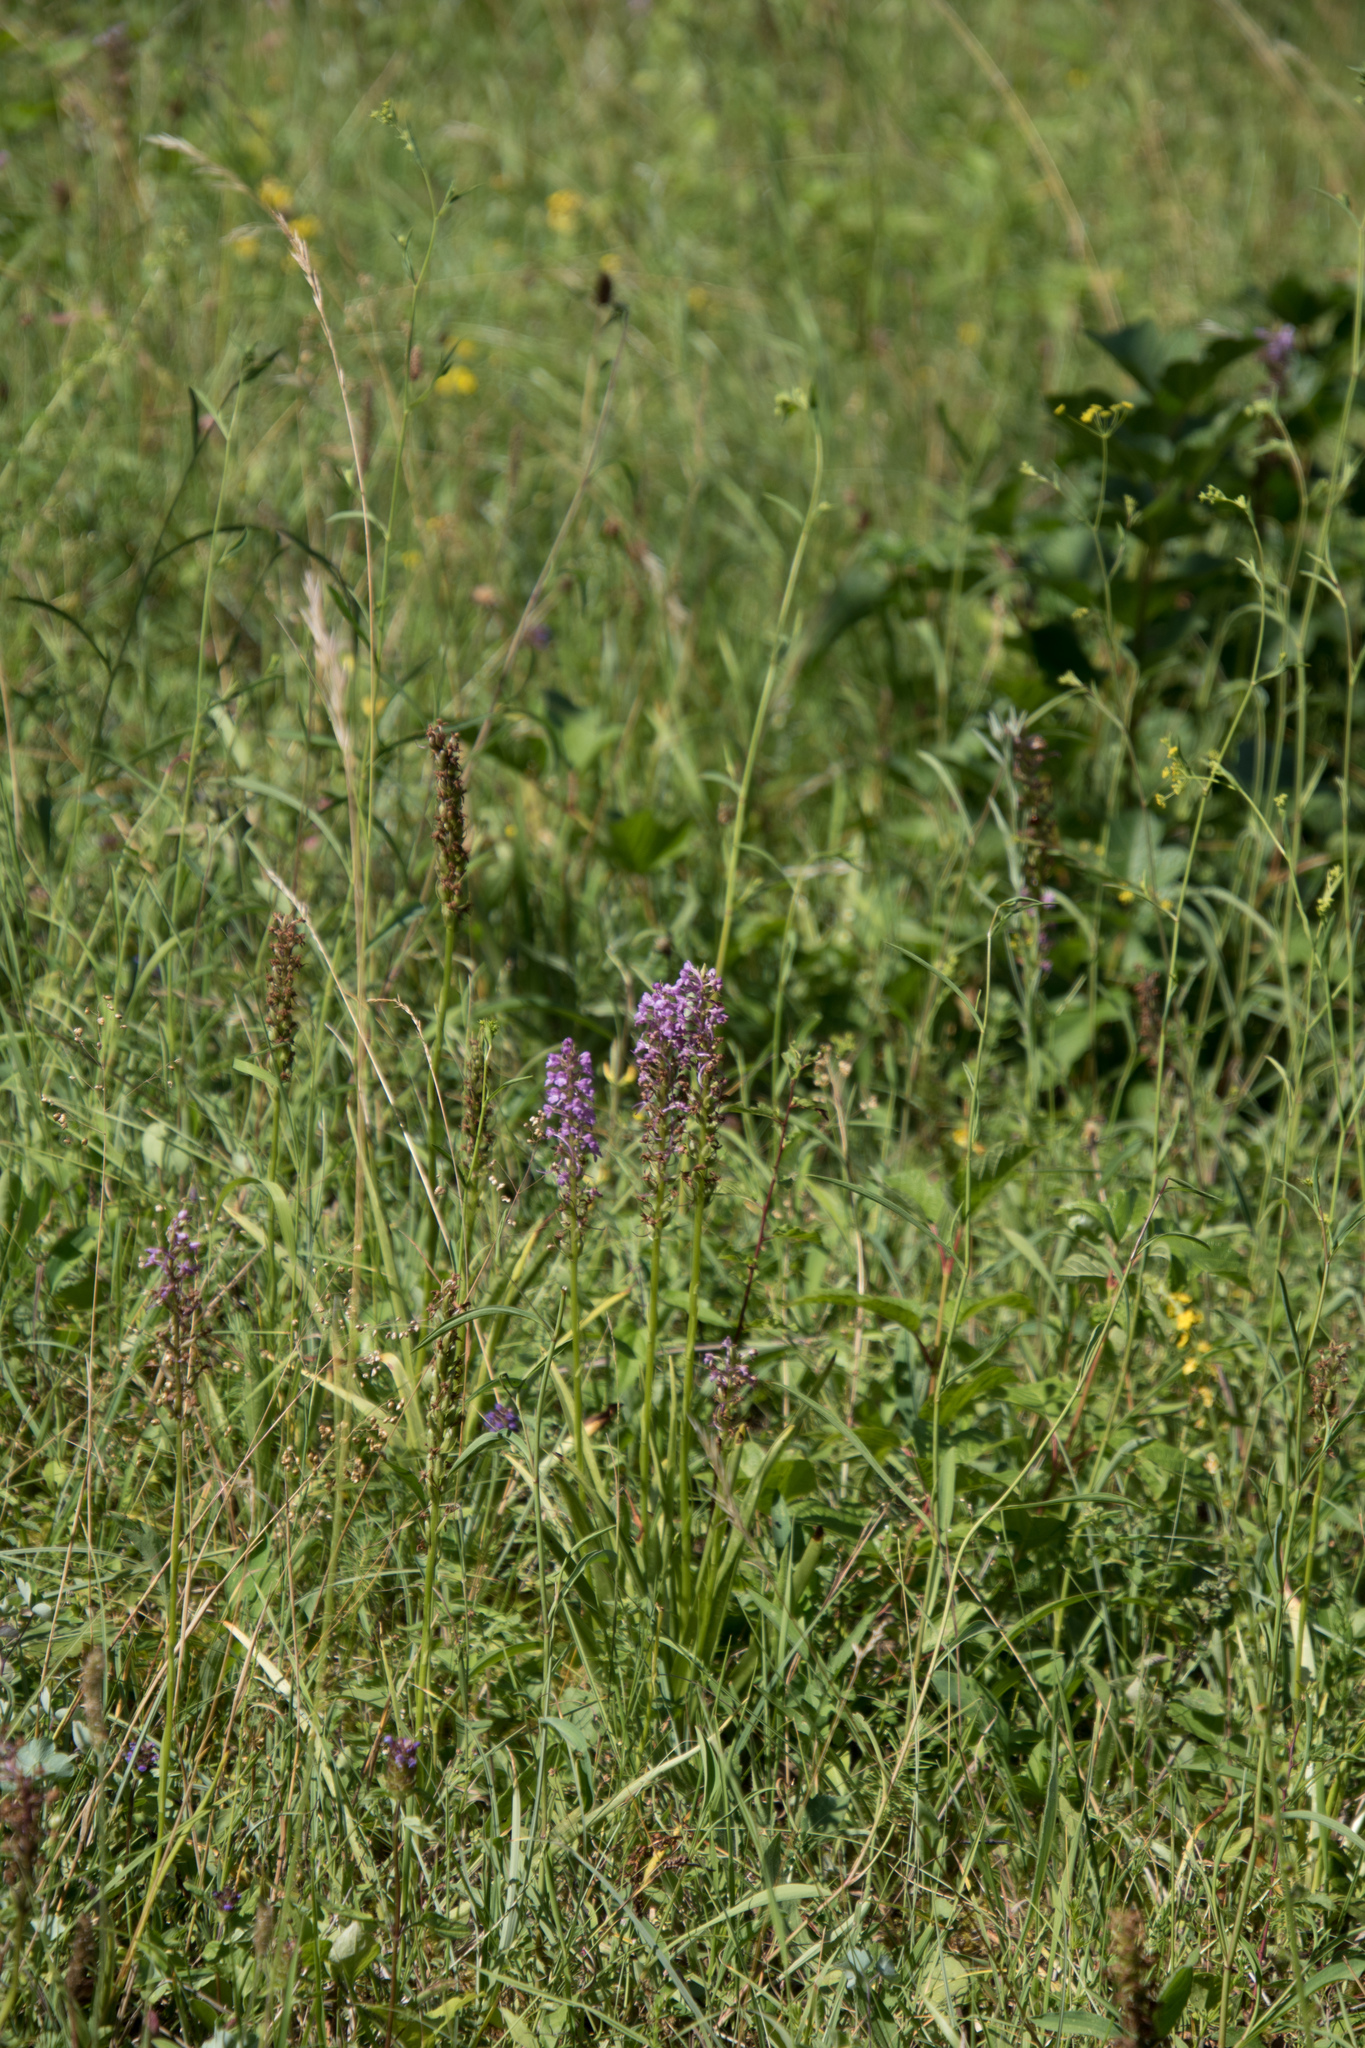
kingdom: Plantae
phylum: Tracheophyta
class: Liliopsida
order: Asparagales
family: Orchidaceae
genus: Gymnadenia
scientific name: Gymnadenia conopsea
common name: Fragrant orchid
